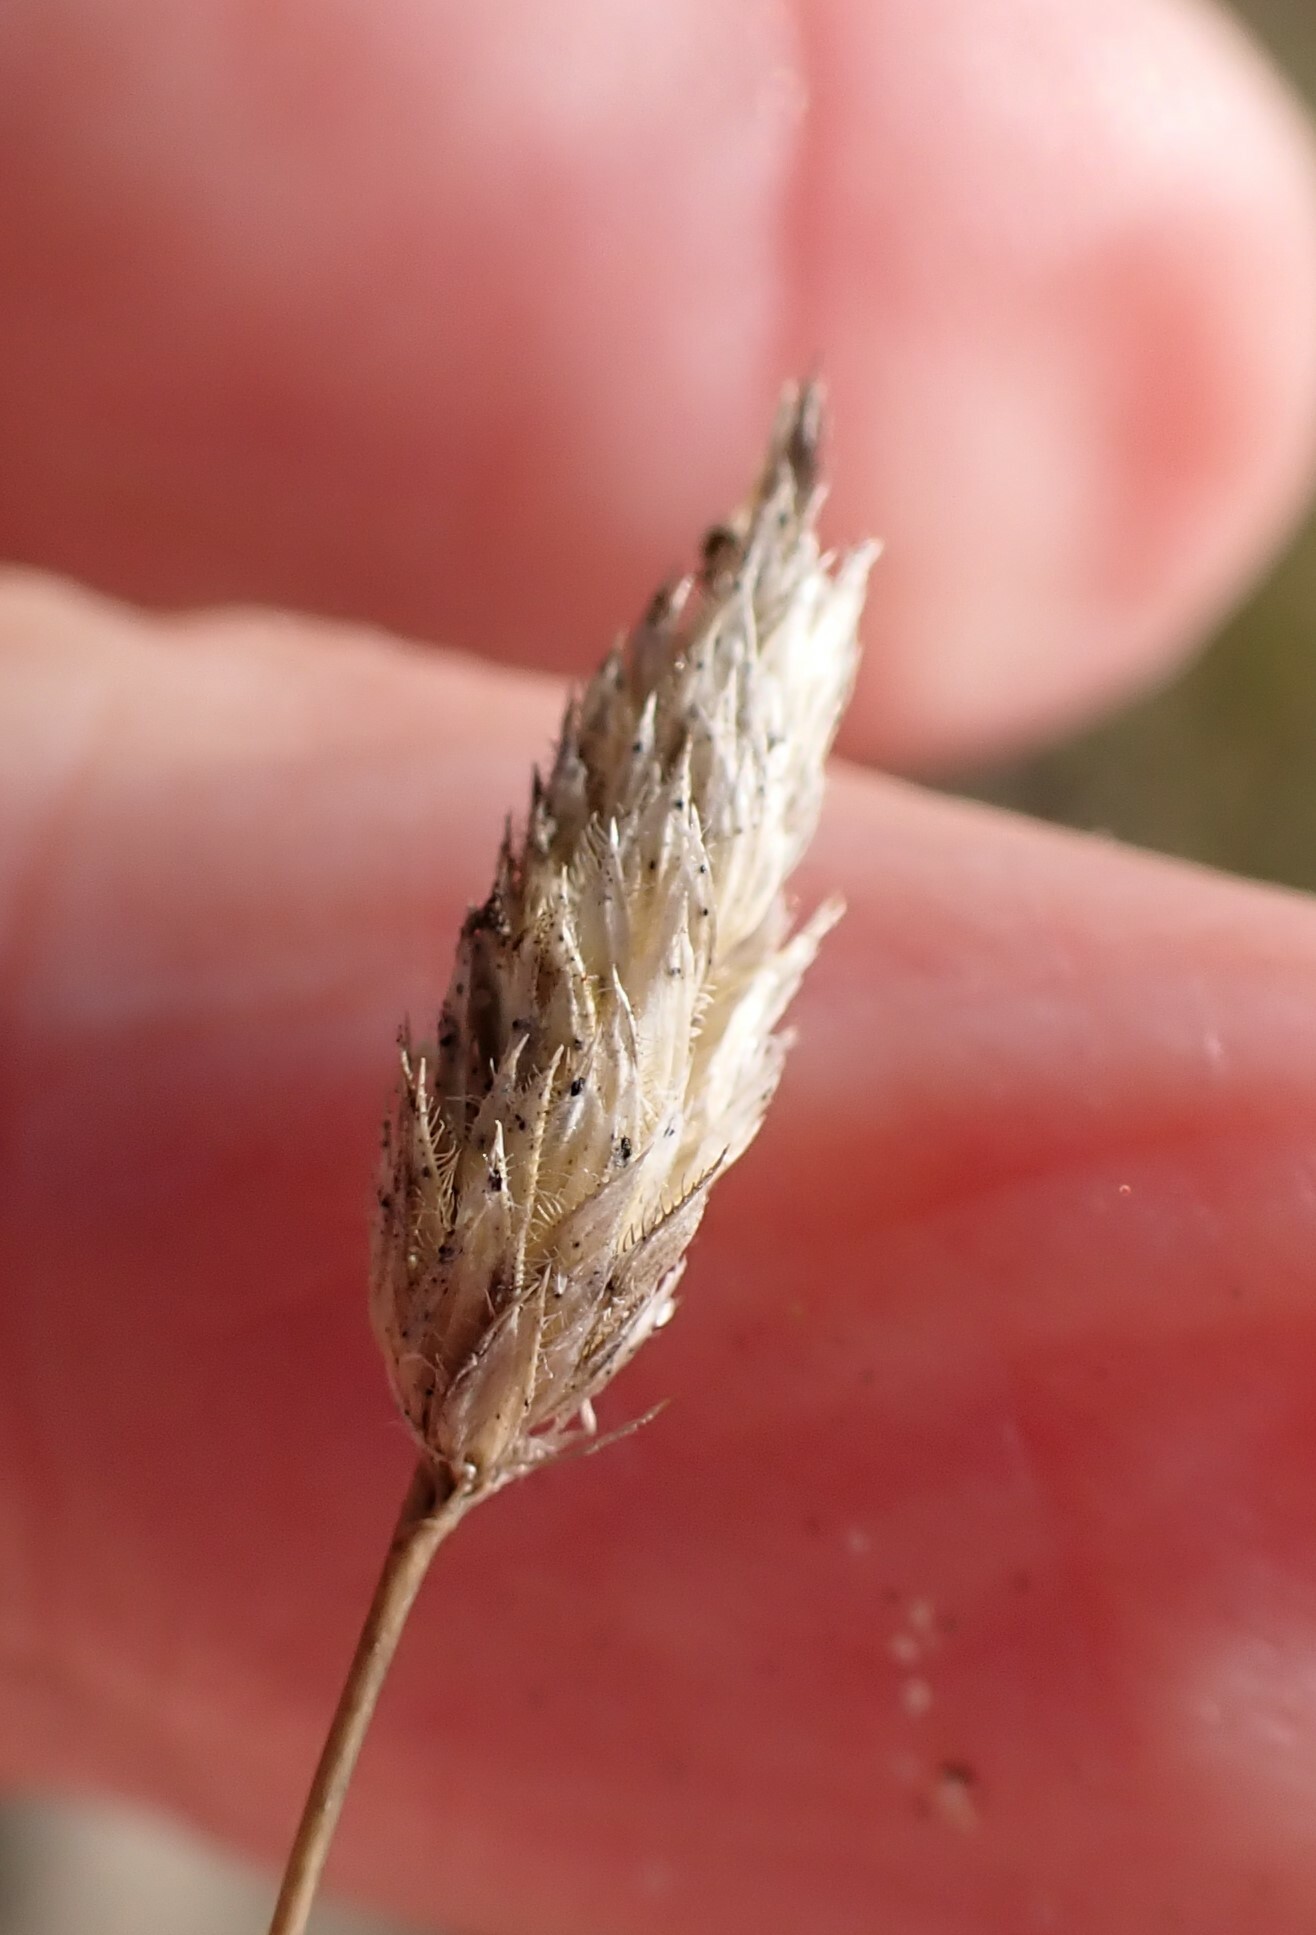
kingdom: Plantae
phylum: Tracheophyta
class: Liliopsida
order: Poales
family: Poaceae
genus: Phleum
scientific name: Phleum arenarium
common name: Sand cat's-tail
